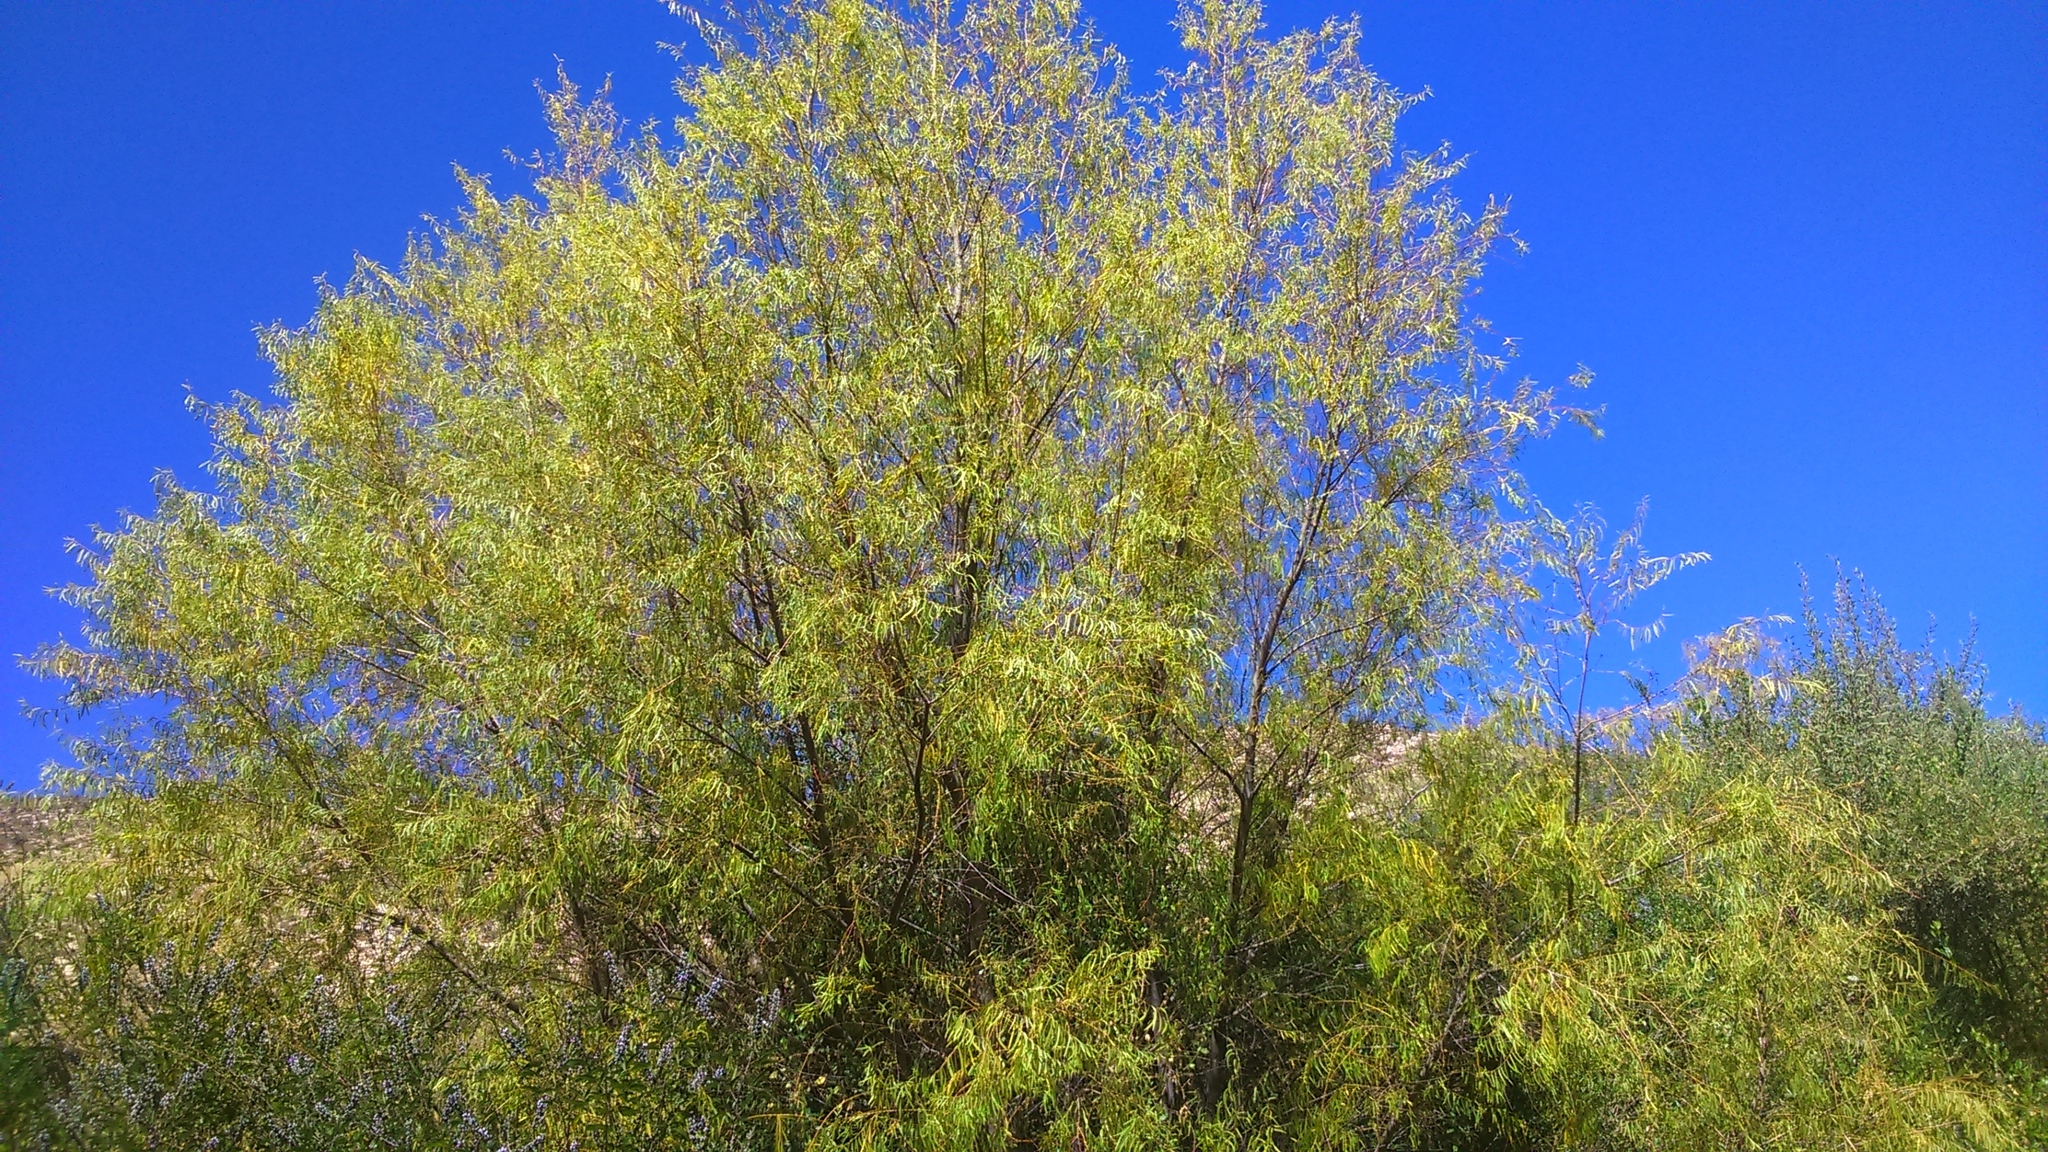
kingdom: Plantae
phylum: Tracheophyta
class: Magnoliopsida
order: Malpighiales
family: Salicaceae
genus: Salix
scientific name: Salix humboldtiana
